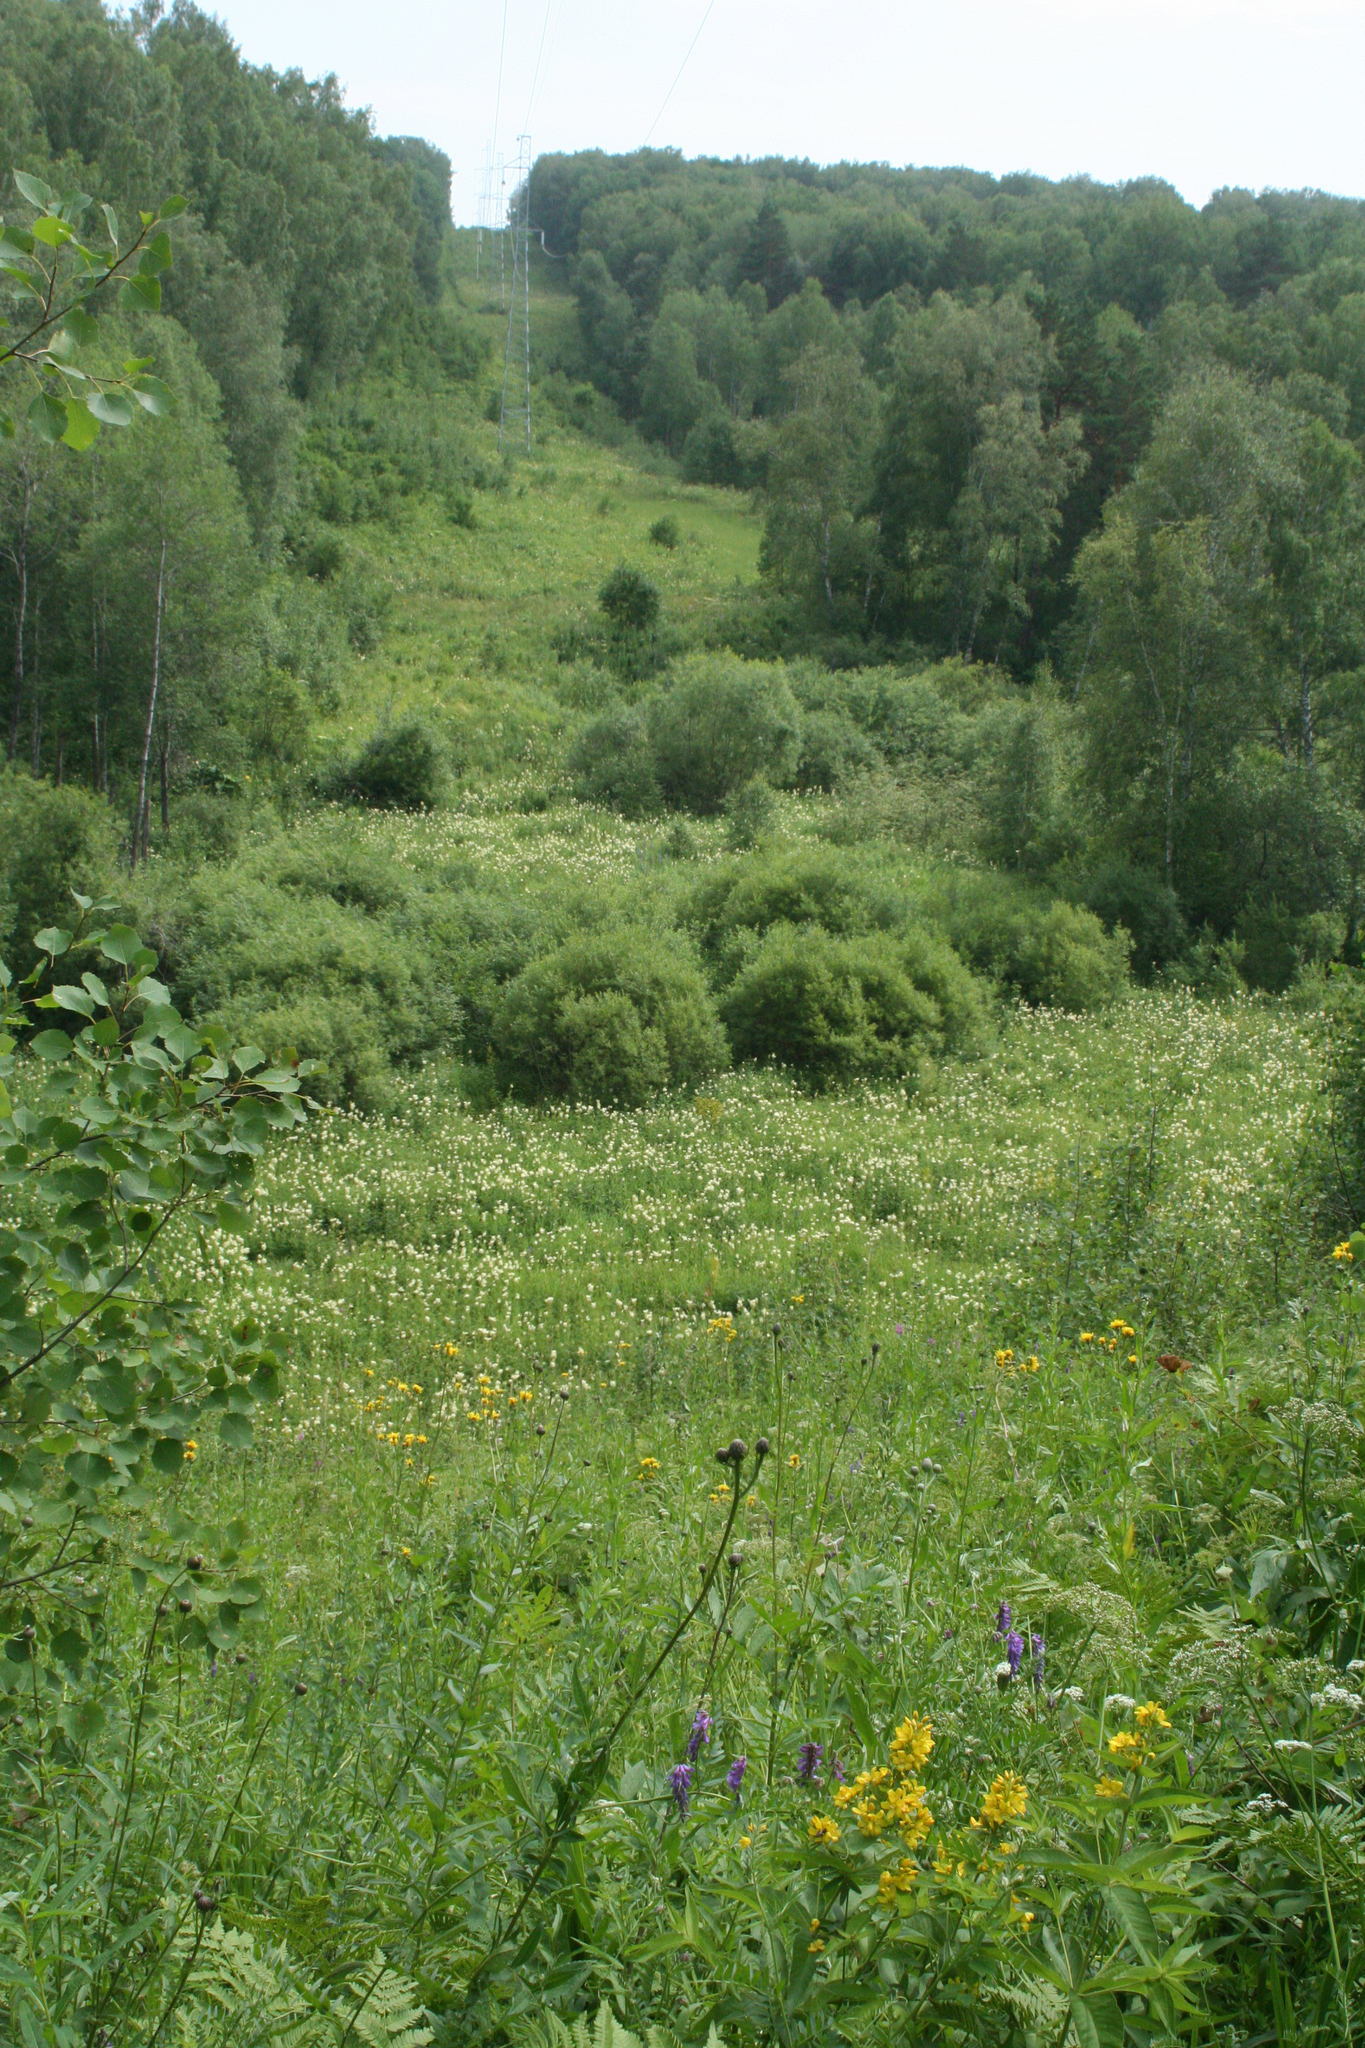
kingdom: Plantae
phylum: Tracheophyta
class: Magnoliopsida
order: Asterales
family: Asteraceae
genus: Crepis
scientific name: Crepis sibirica
